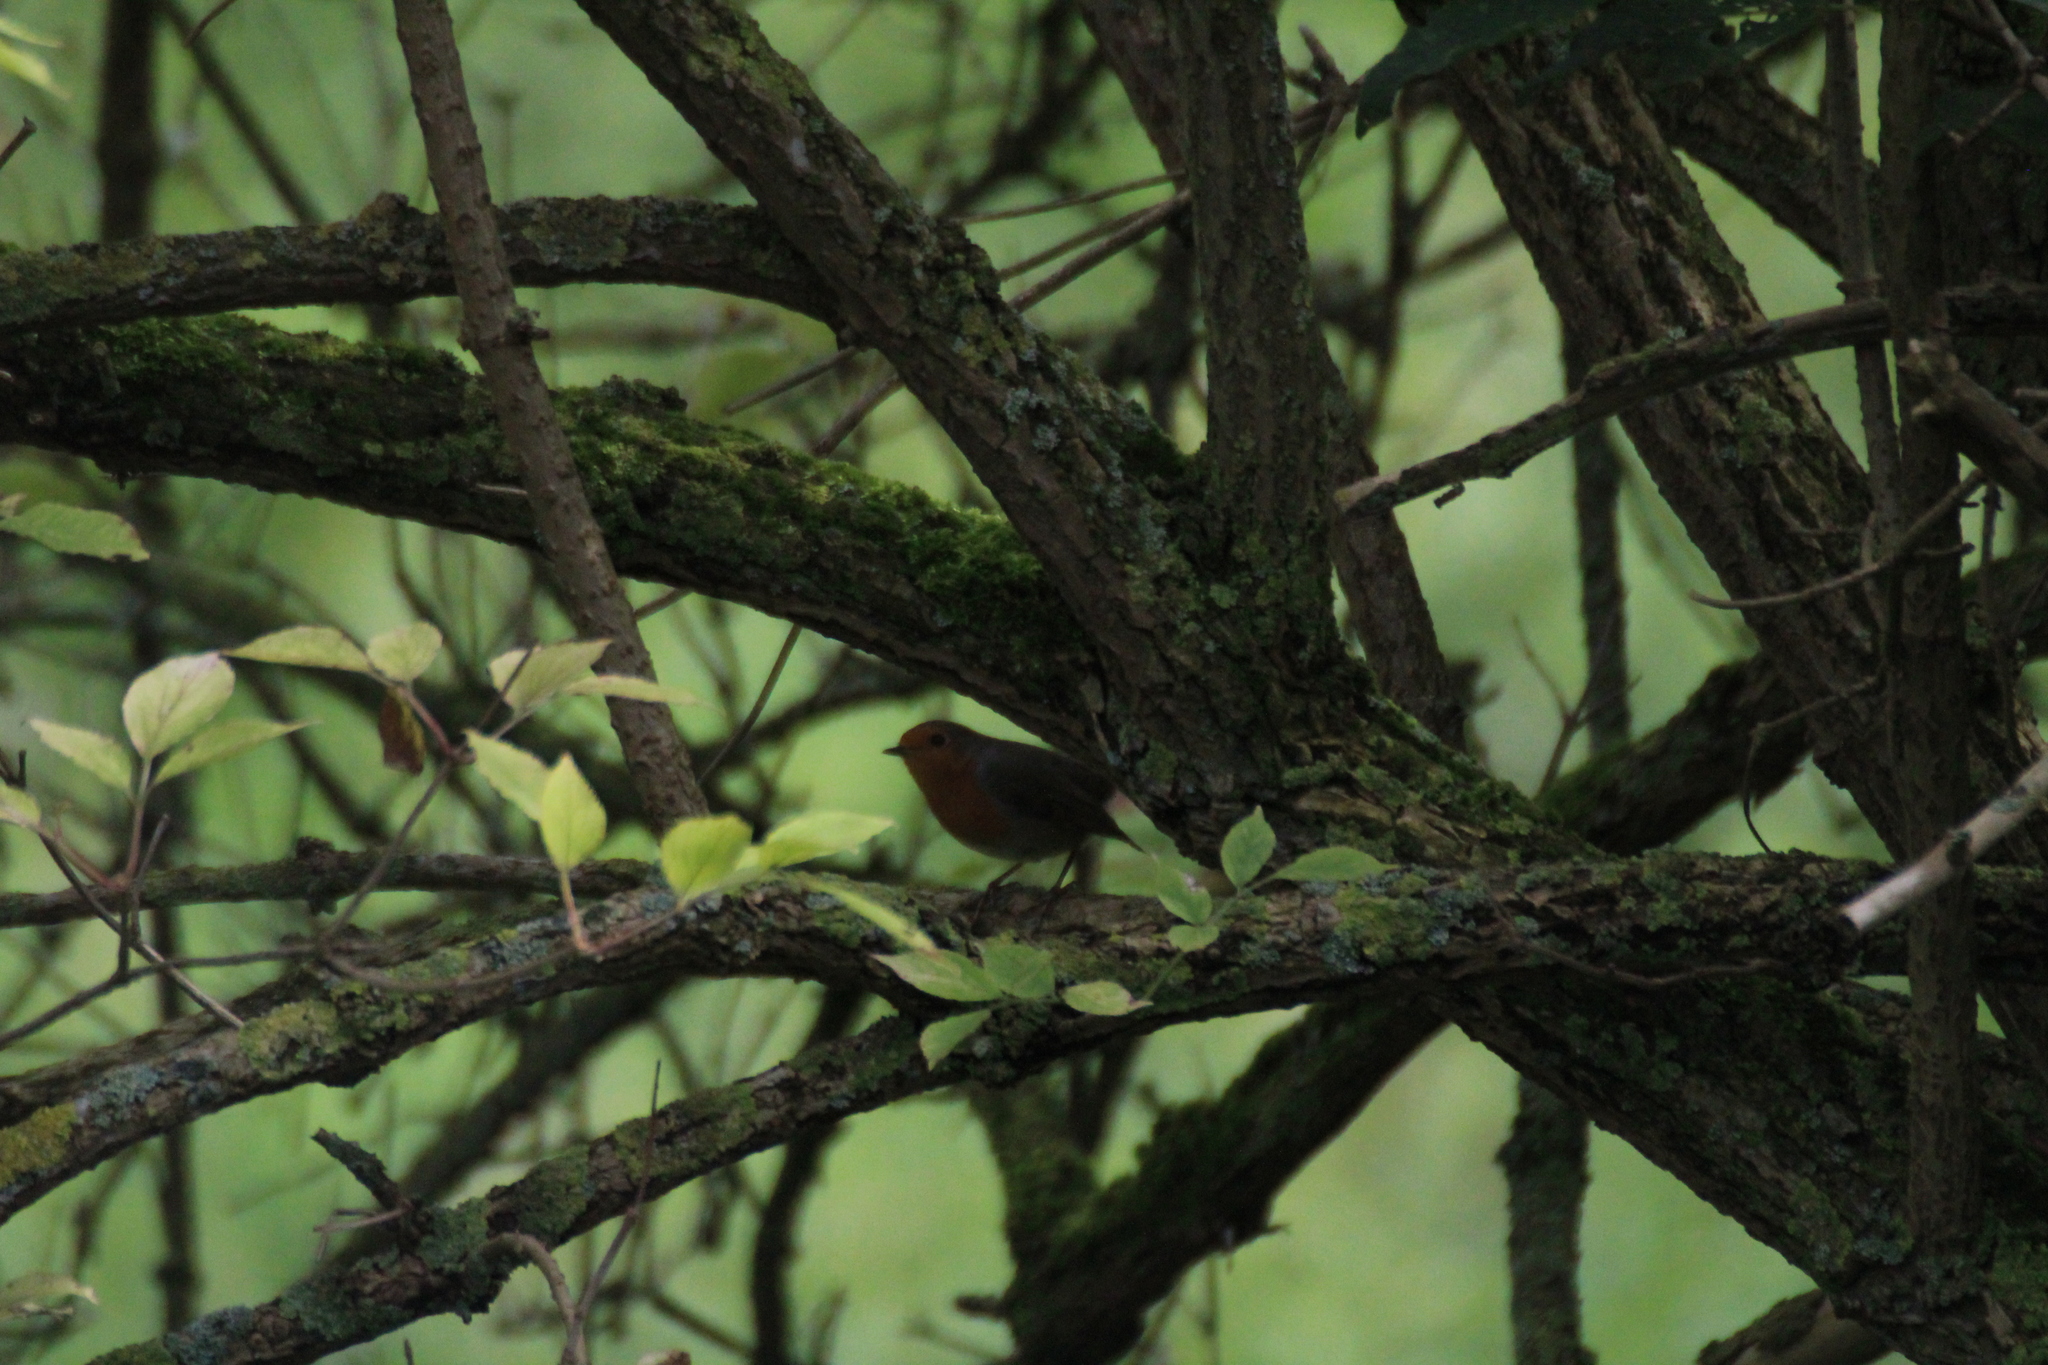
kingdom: Animalia
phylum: Chordata
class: Aves
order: Passeriformes
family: Muscicapidae
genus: Erithacus
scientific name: Erithacus rubecula
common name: European robin
